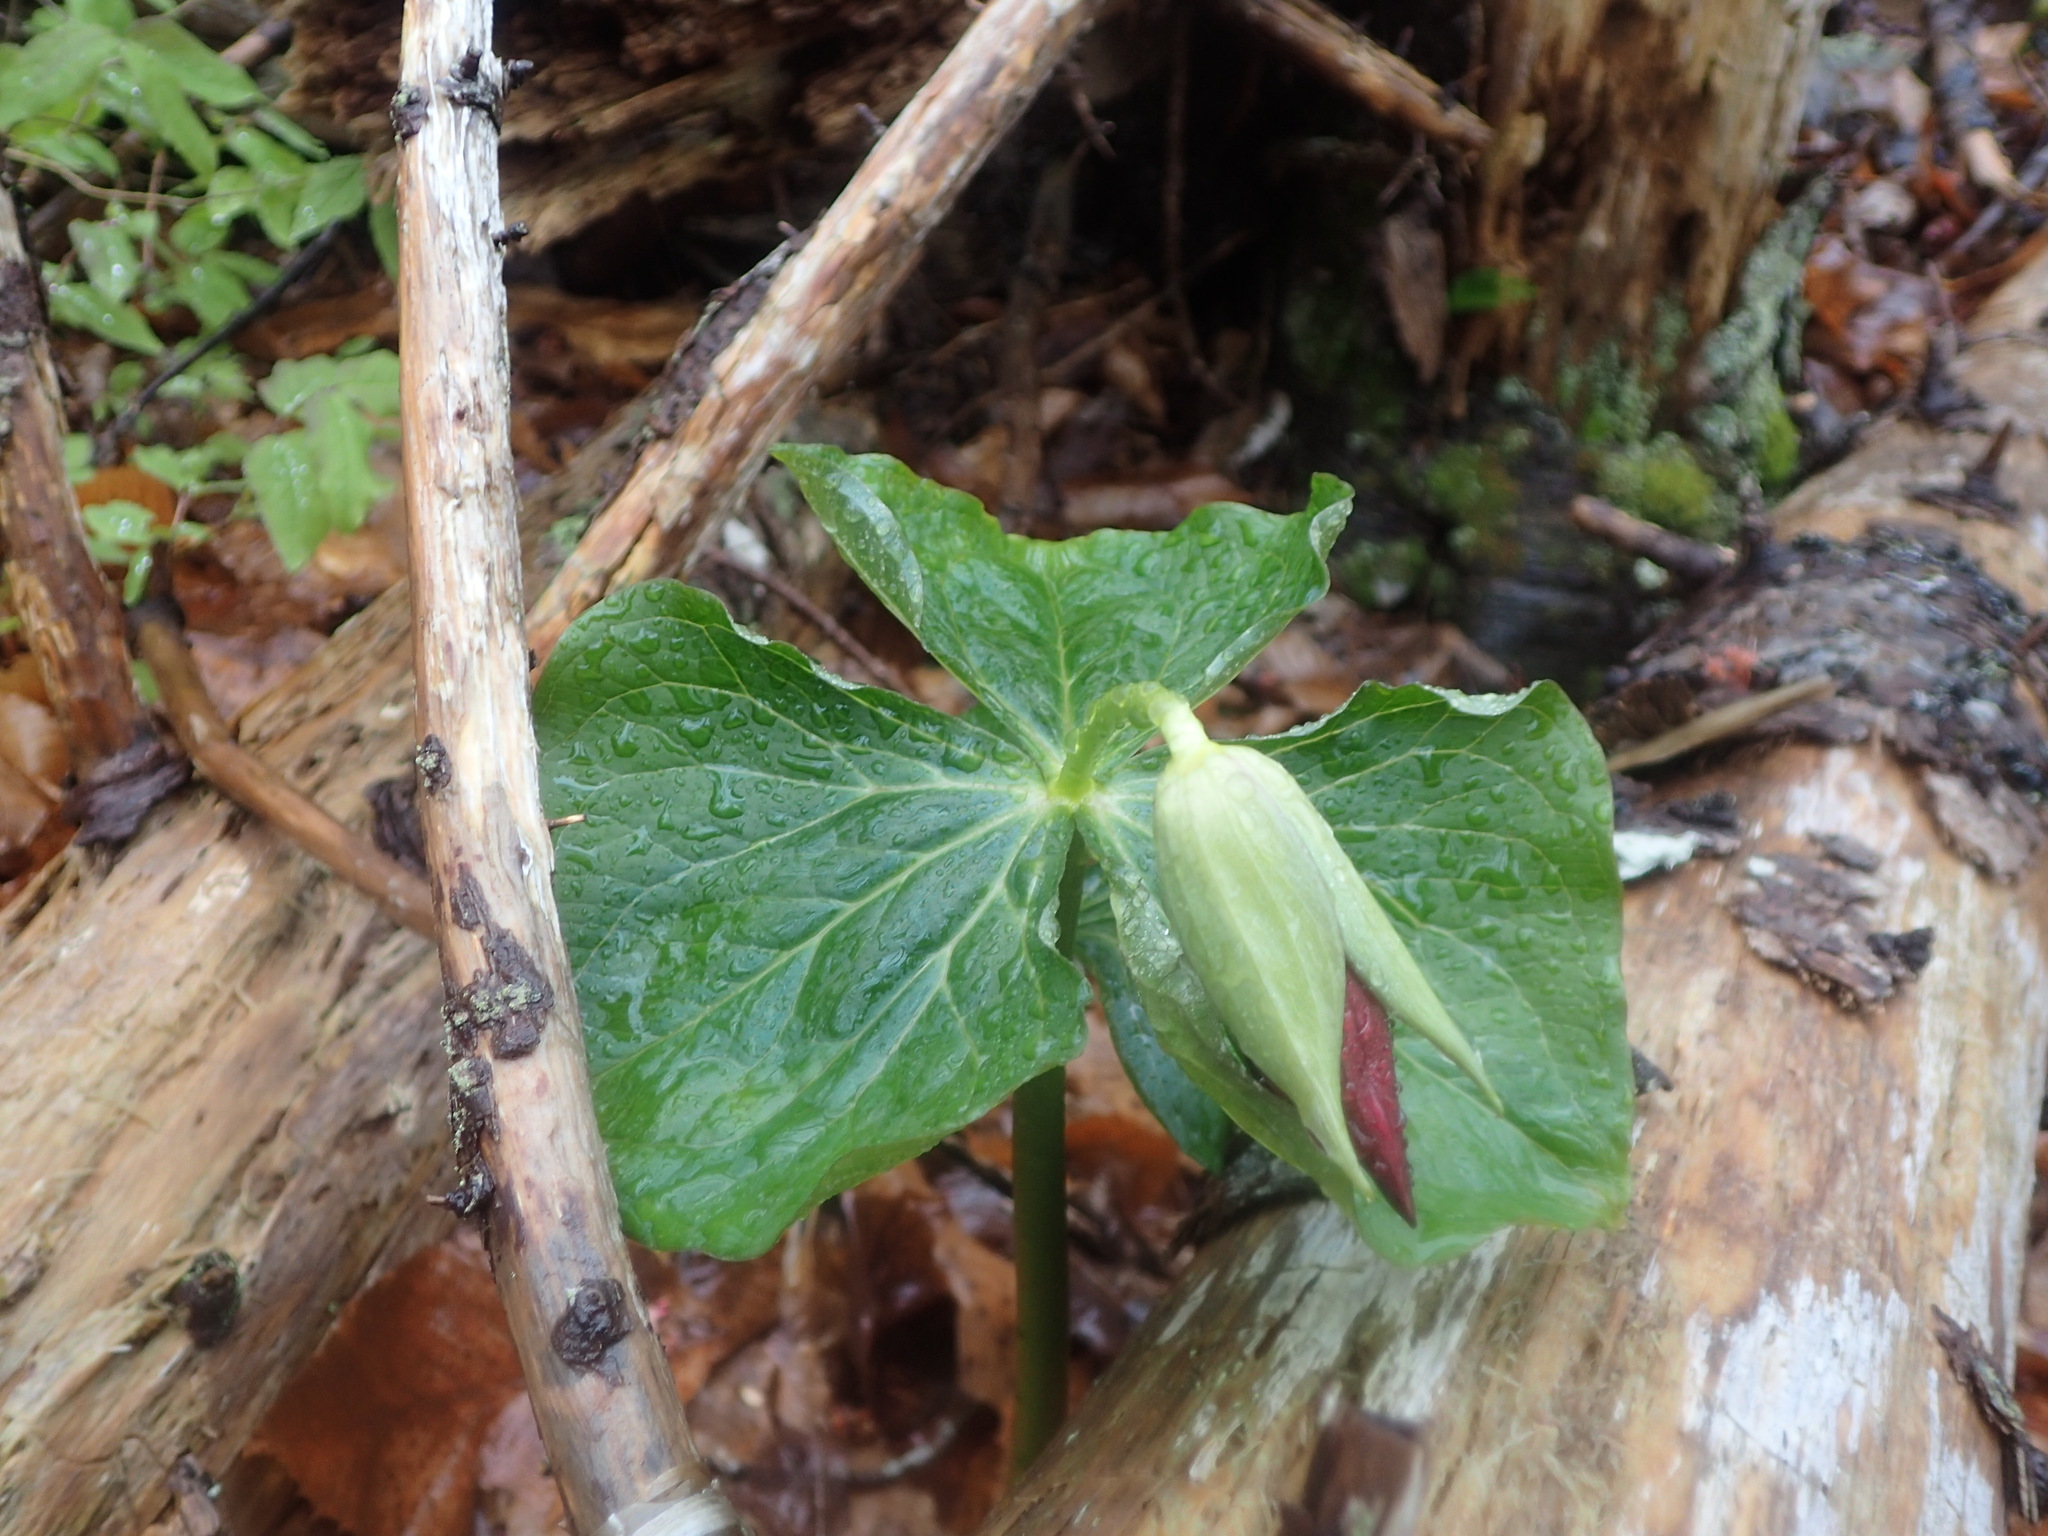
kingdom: Plantae
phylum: Tracheophyta
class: Liliopsida
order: Liliales
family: Melanthiaceae
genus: Trillium
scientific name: Trillium erectum
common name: Purple trillium
